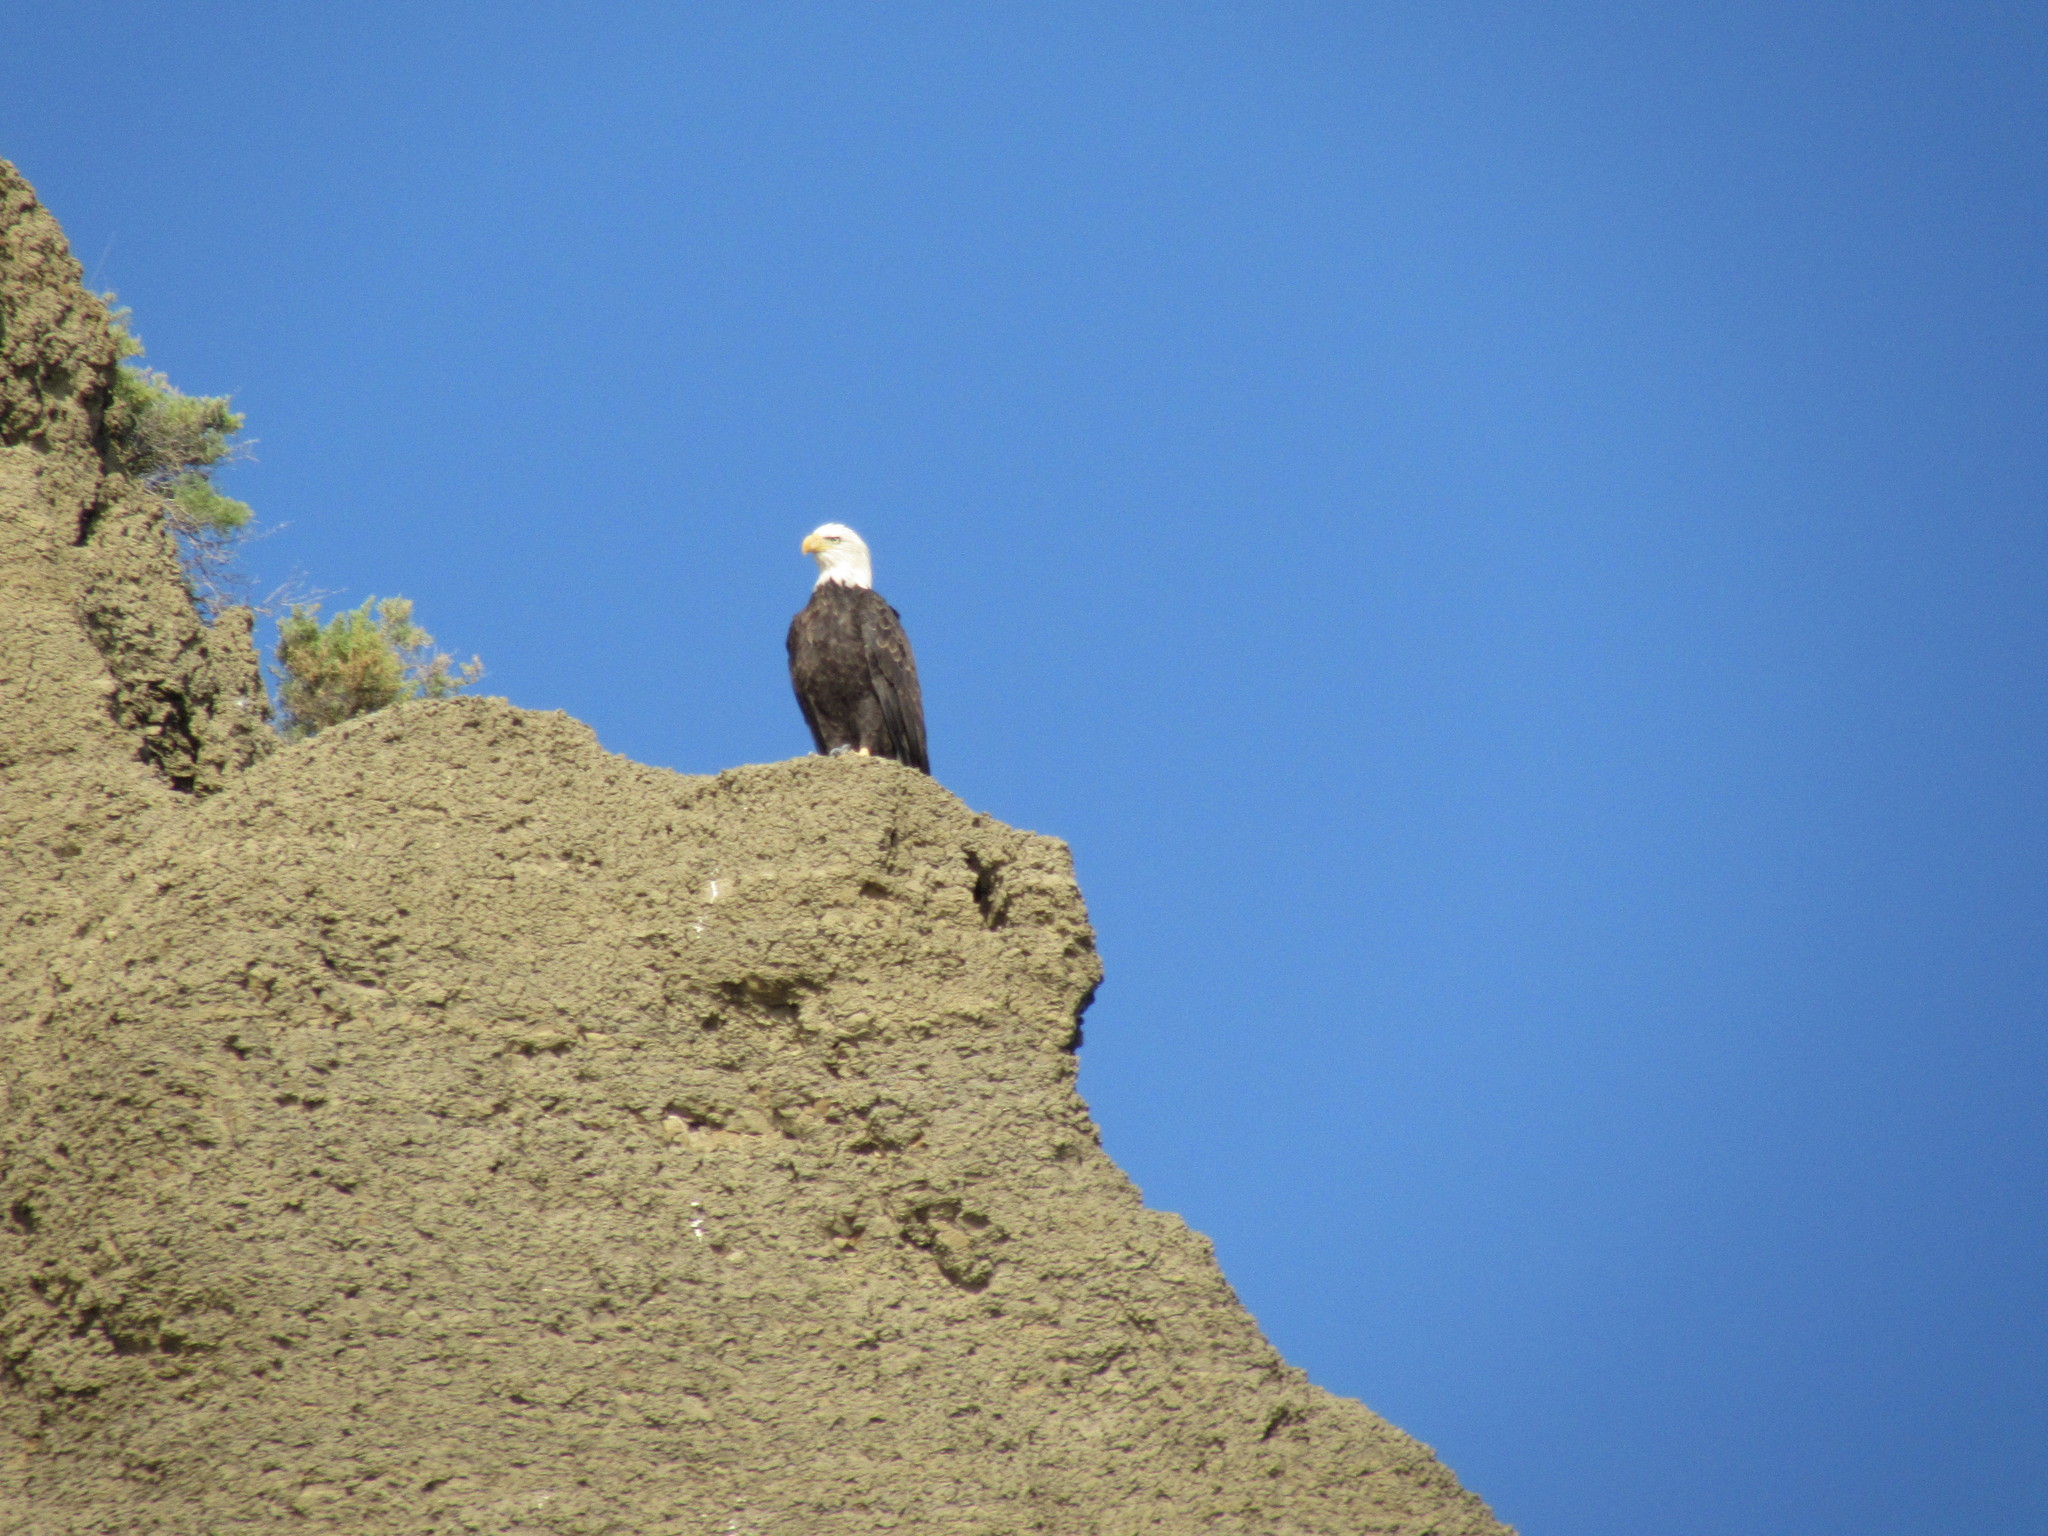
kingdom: Animalia
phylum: Chordata
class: Aves
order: Accipitriformes
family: Accipitridae
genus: Haliaeetus
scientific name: Haliaeetus leucocephalus
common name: Bald eagle
